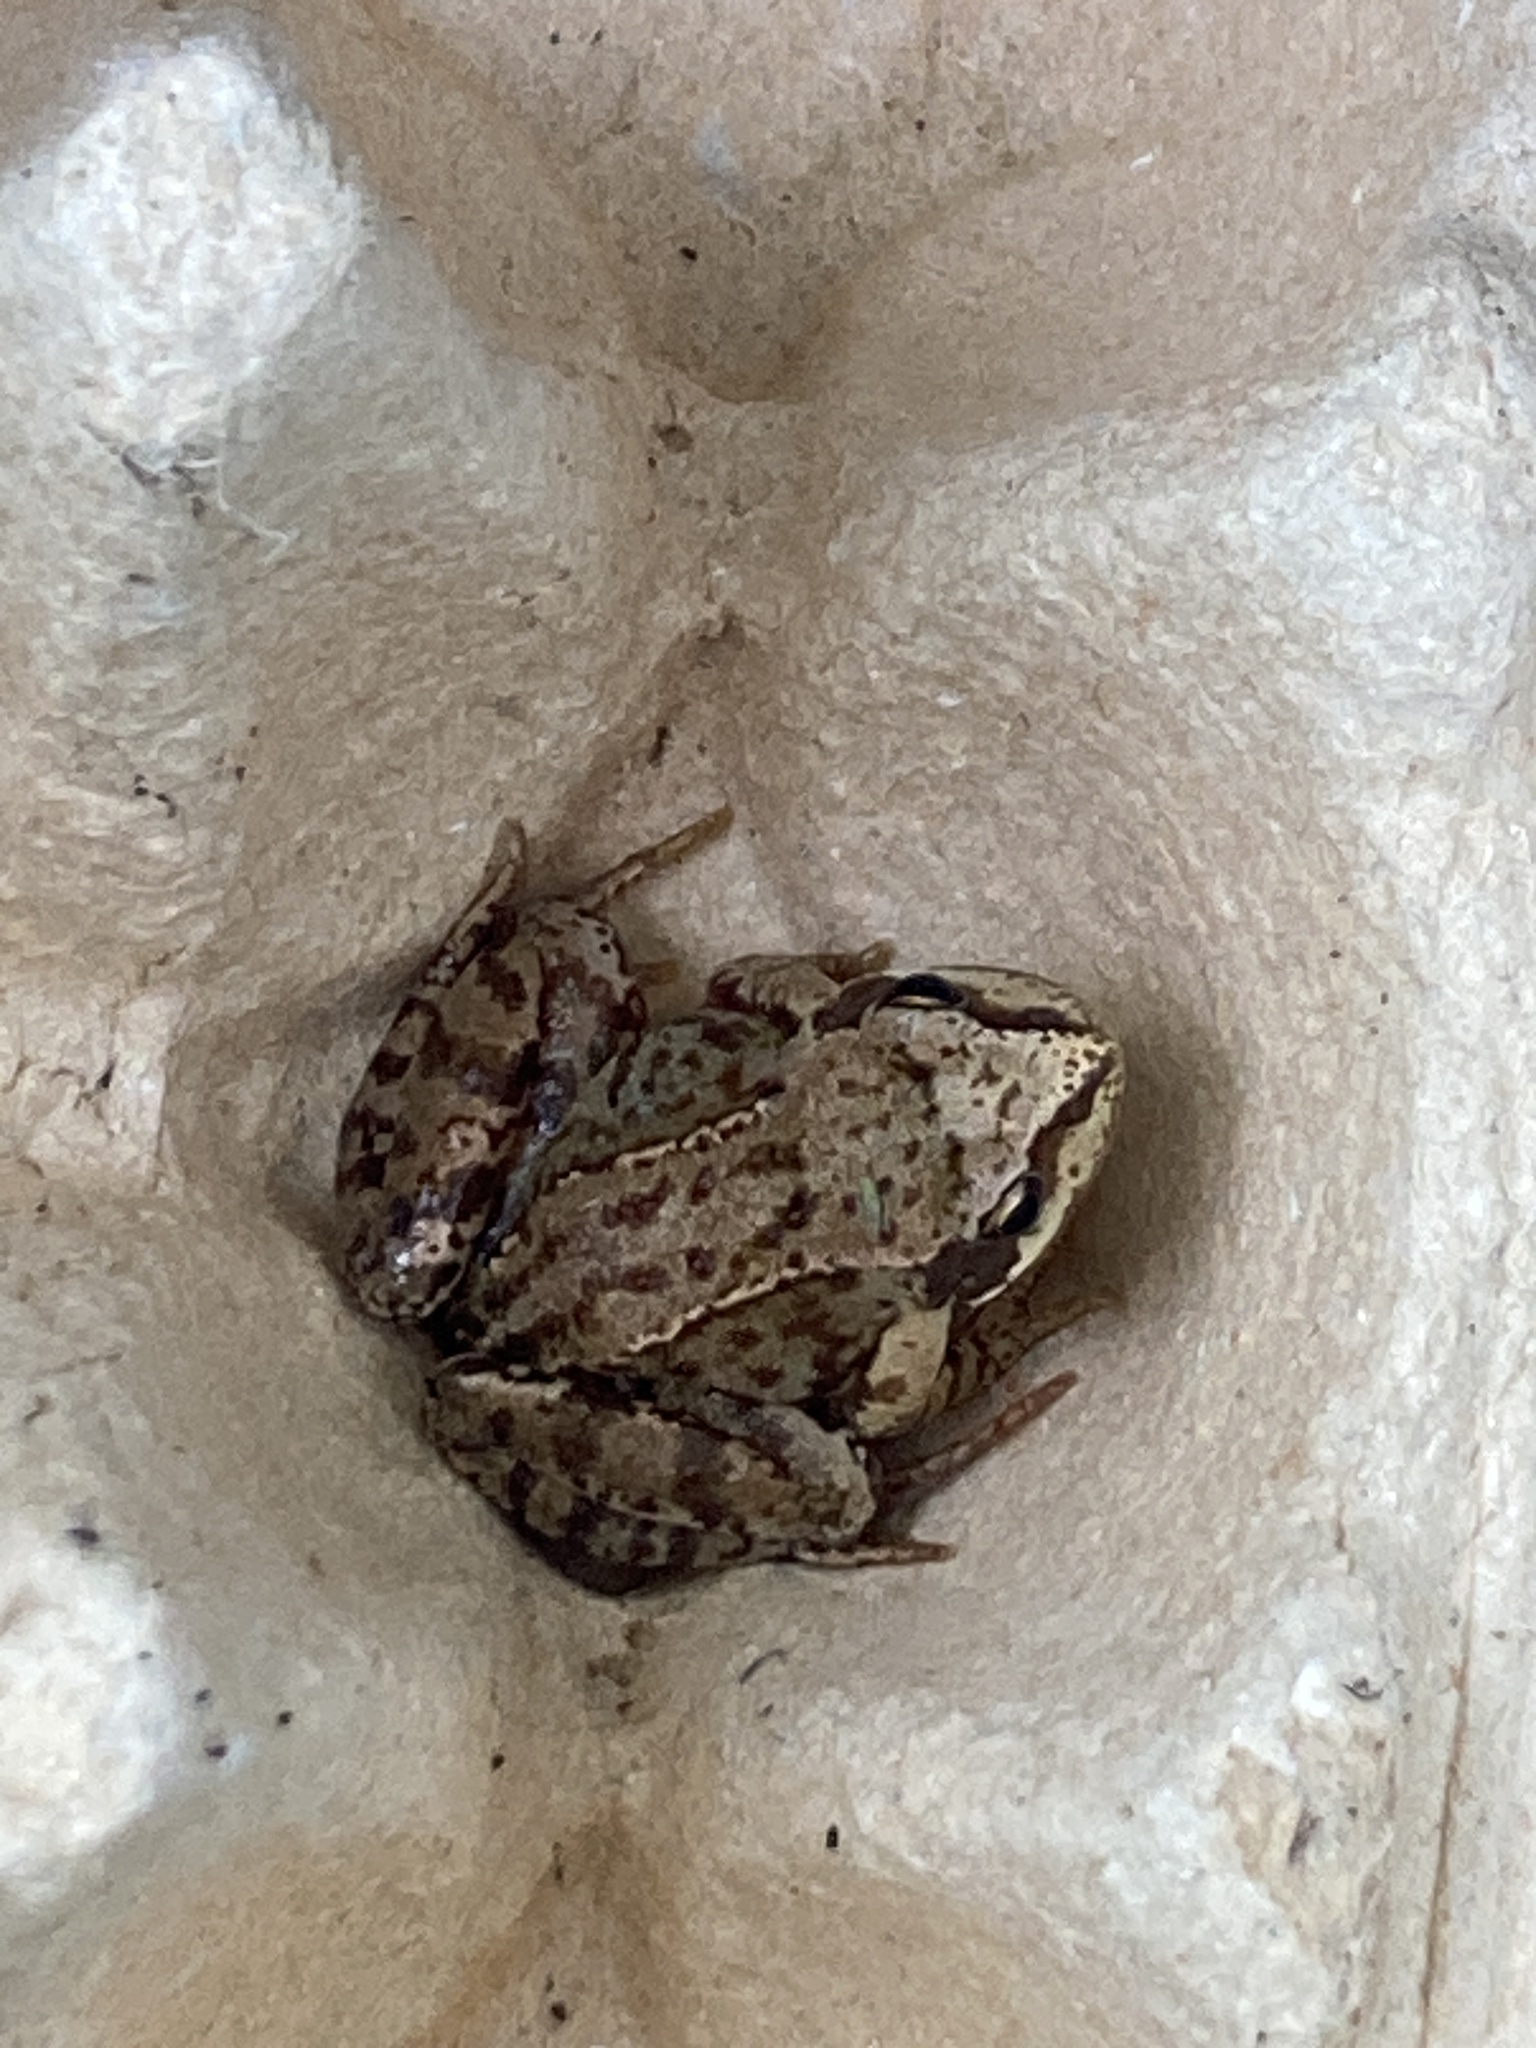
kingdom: Animalia
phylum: Chordata
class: Amphibia
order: Anura
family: Ranidae
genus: Rana
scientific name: Rana temporaria
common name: Common frog
